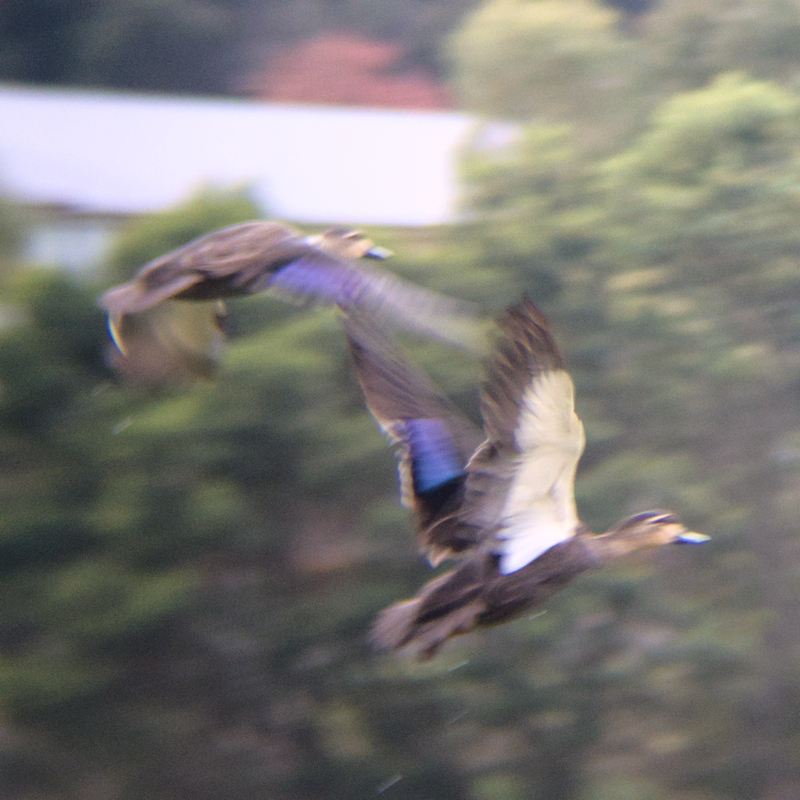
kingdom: Animalia
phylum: Chordata
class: Aves
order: Anseriformes
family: Anatidae
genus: Anas
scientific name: Anas superciliosa
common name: Pacific black duck
